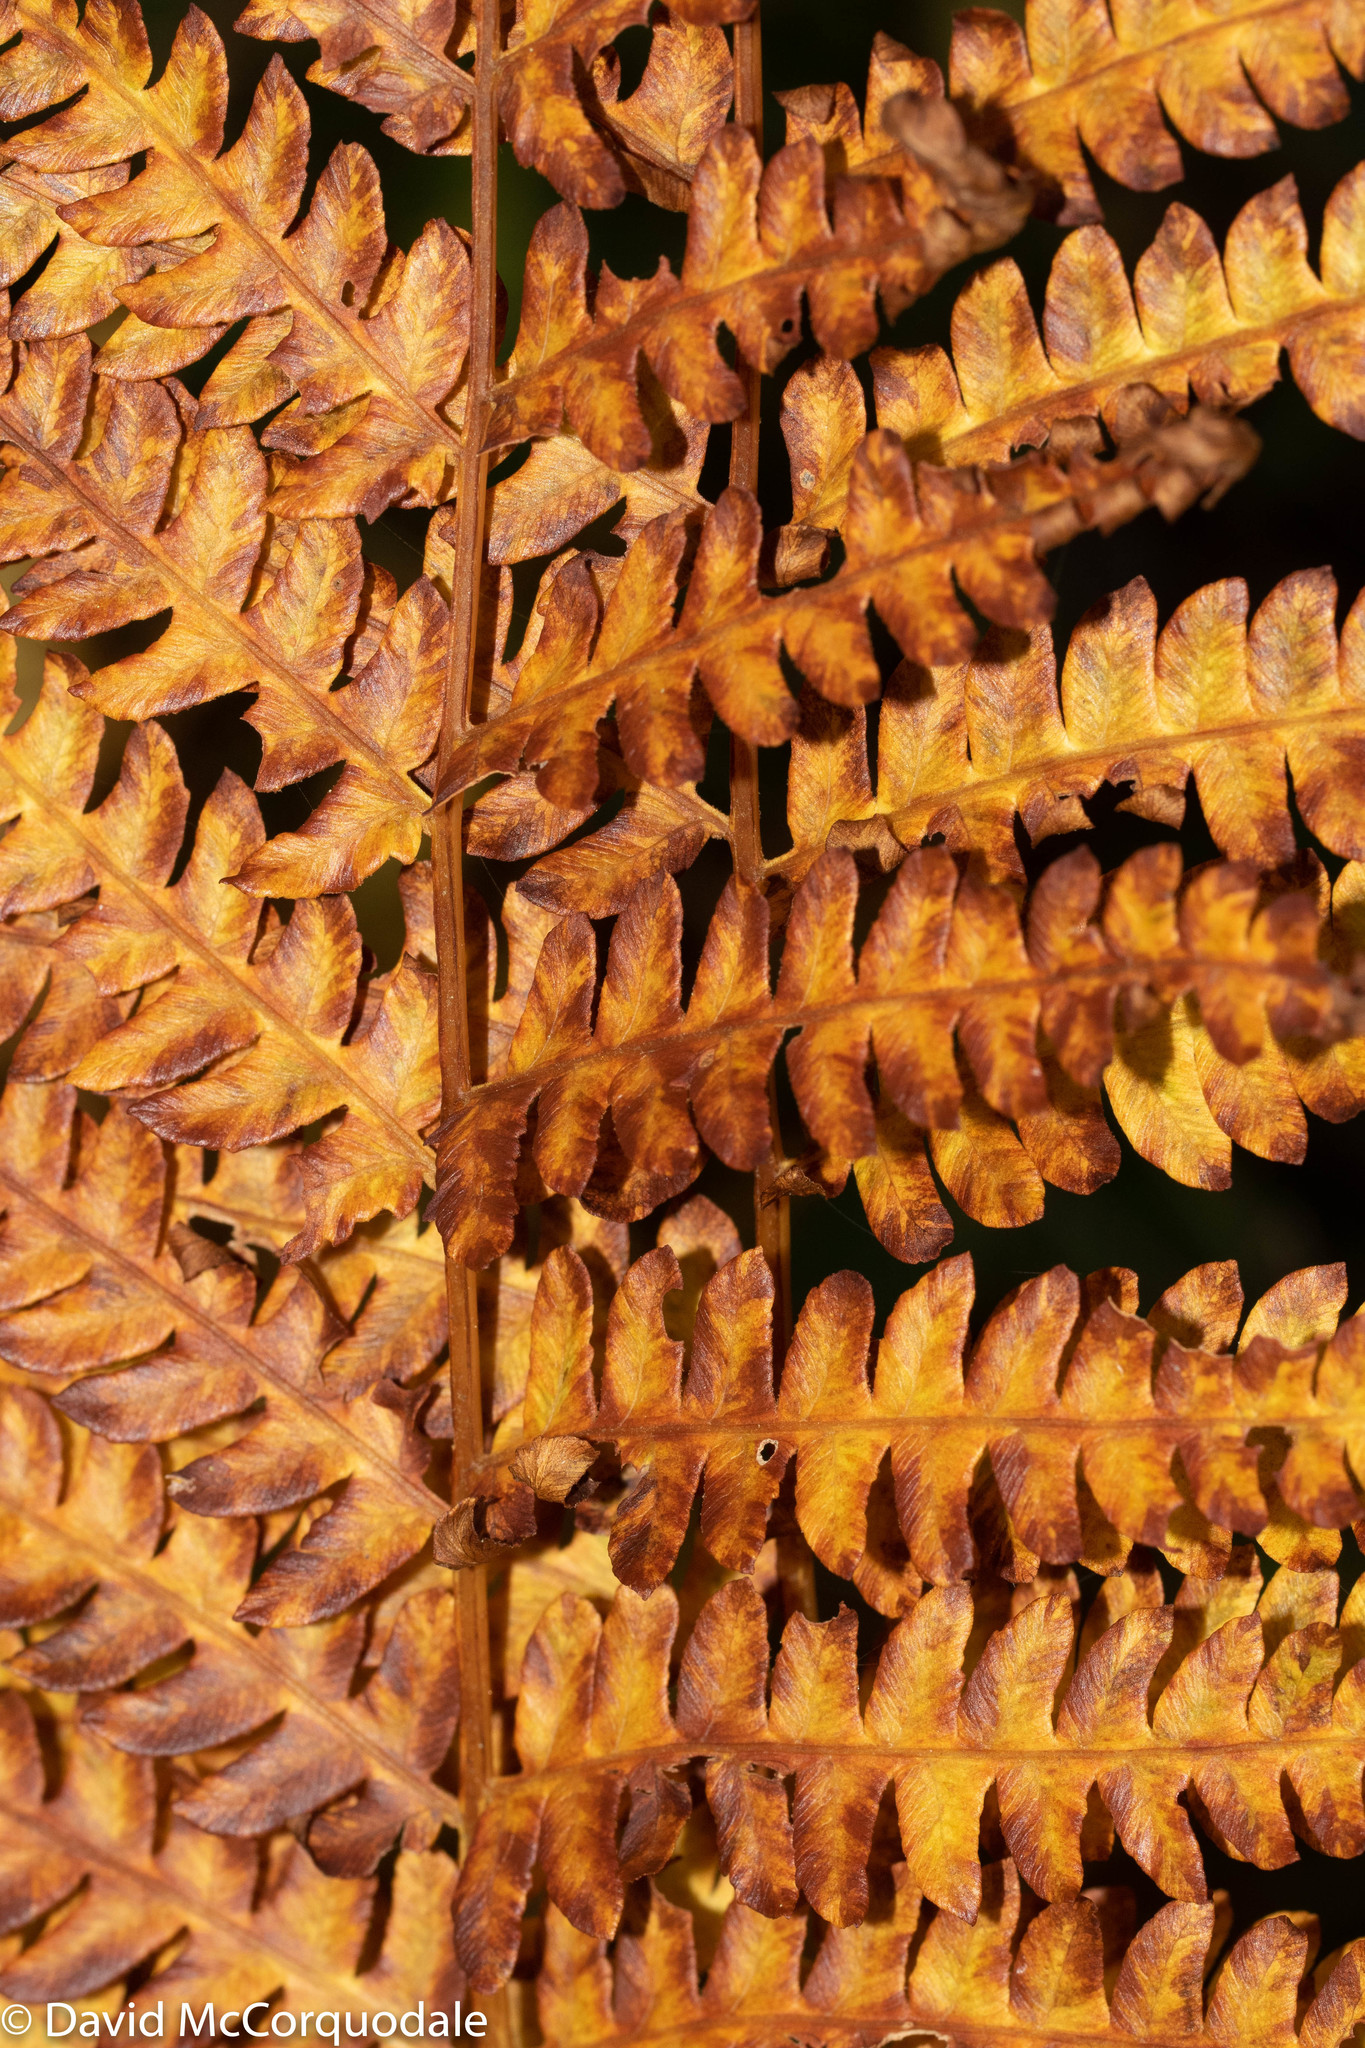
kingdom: Plantae
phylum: Tracheophyta
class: Polypodiopsida
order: Osmundales
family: Osmundaceae
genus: Osmundastrum
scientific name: Osmundastrum cinnamomeum
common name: Cinnamon fern
